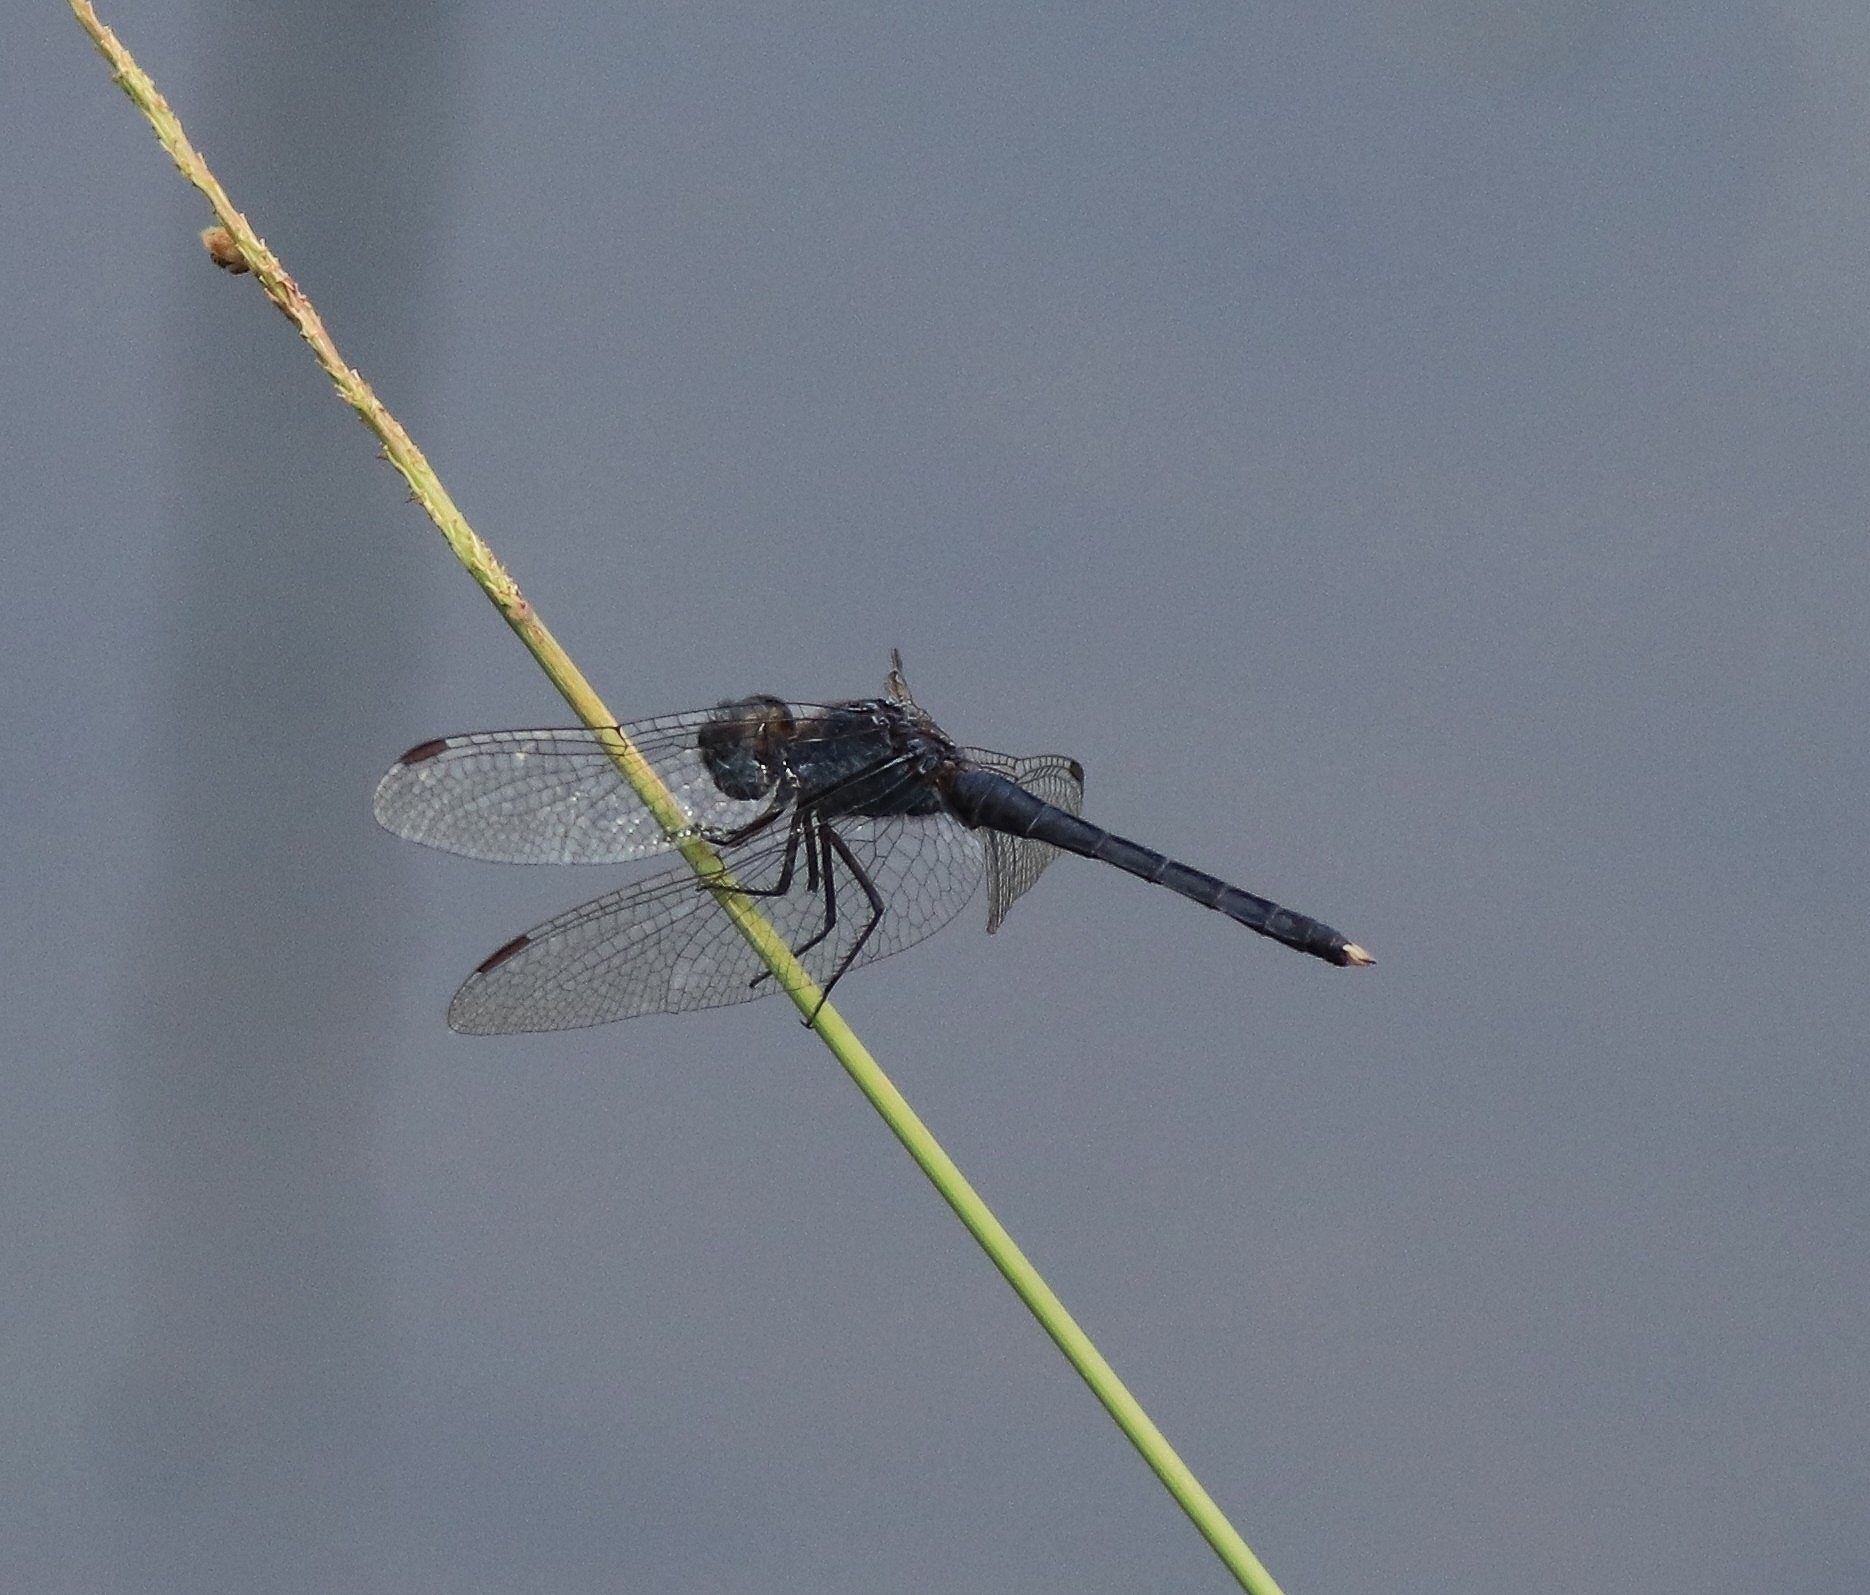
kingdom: Animalia
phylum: Arthropoda
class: Insecta
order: Odonata
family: Libellulidae
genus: Indothemis
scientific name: Indothemis carnatica
